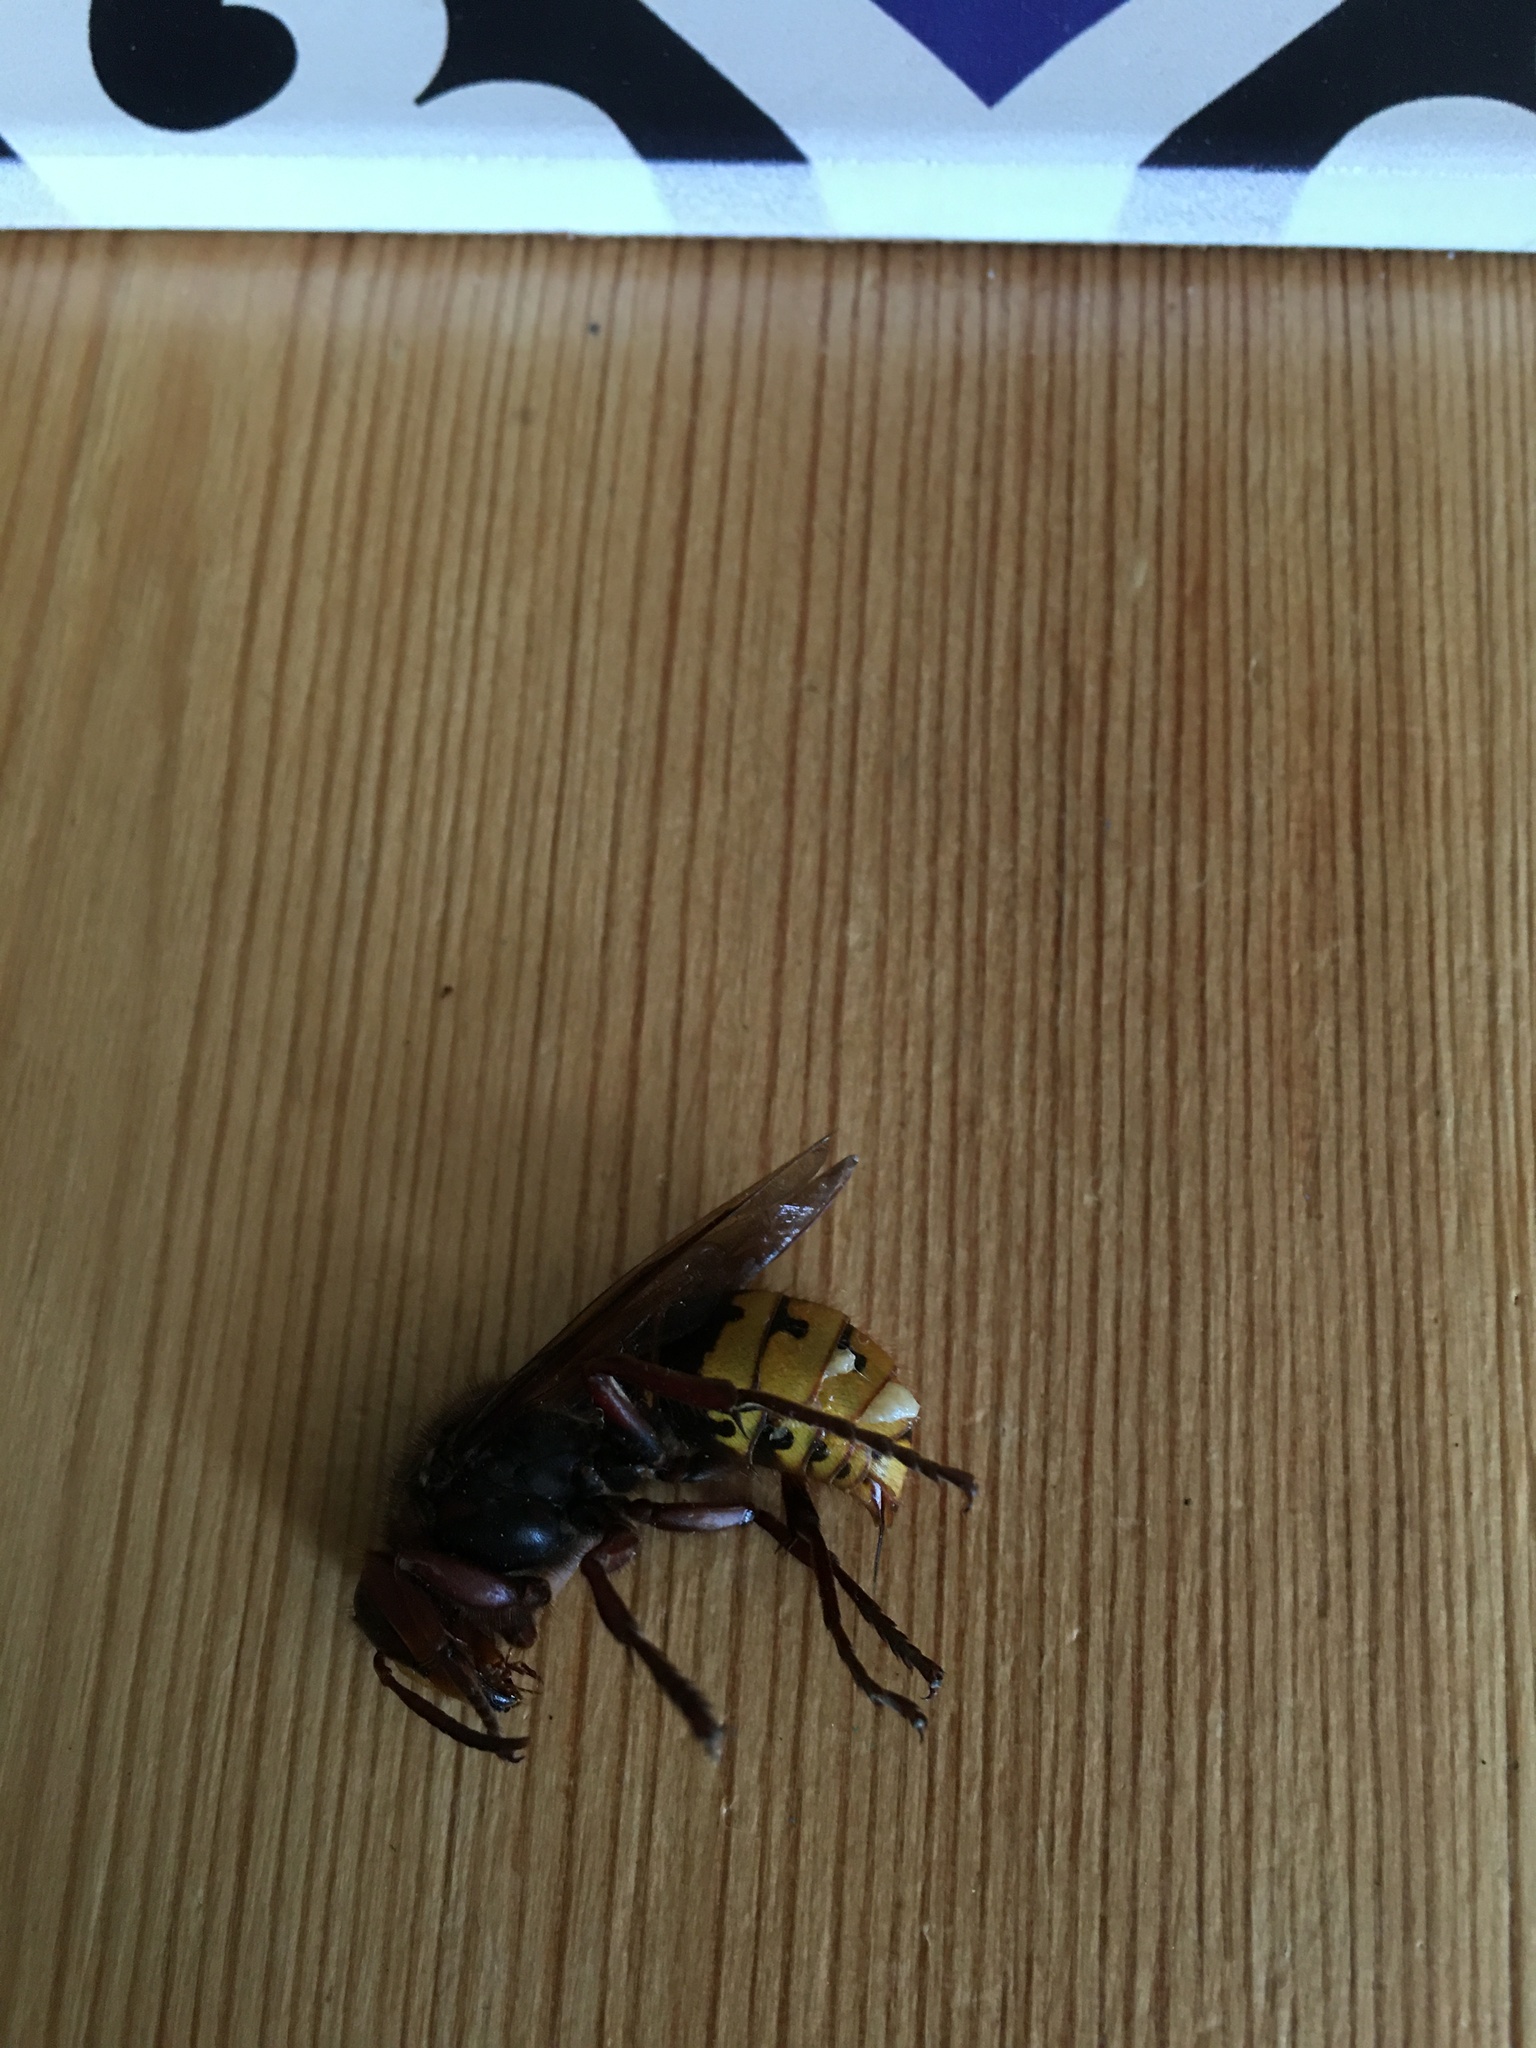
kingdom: Animalia
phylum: Arthropoda
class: Insecta
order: Hymenoptera
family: Vespidae
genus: Vespa
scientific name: Vespa crabro
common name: Hornet
